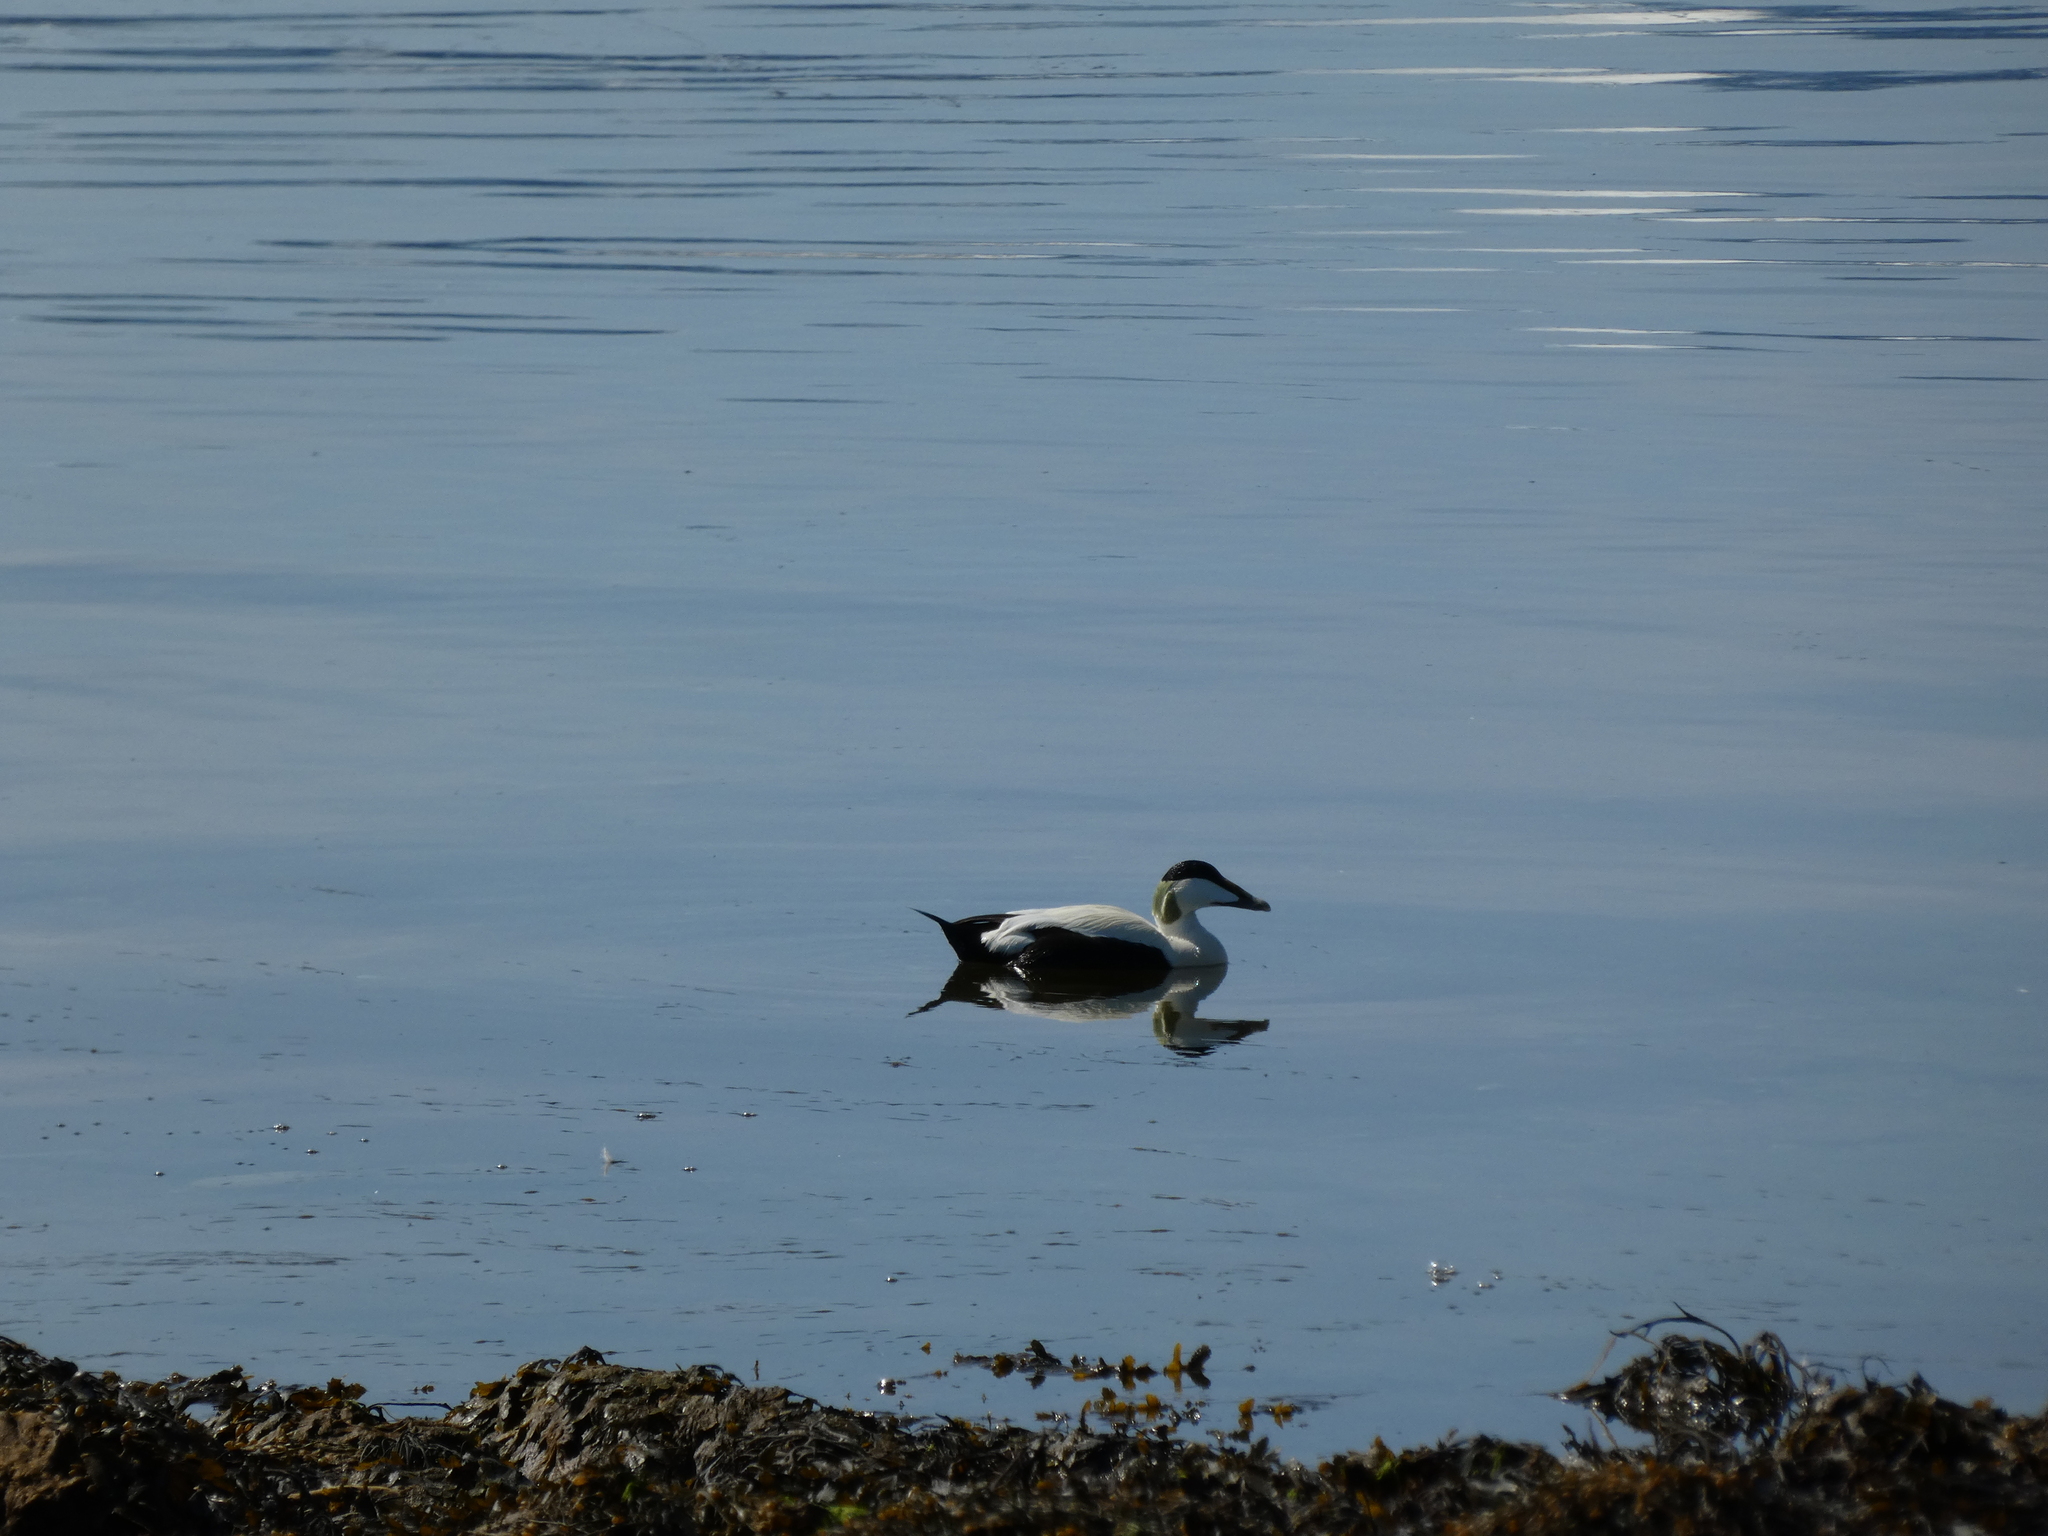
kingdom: Animalia
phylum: Chordata
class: Aves
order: Anseriformes
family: Anatidae
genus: Somateria
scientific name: Somateria mollissima
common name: Common eider
